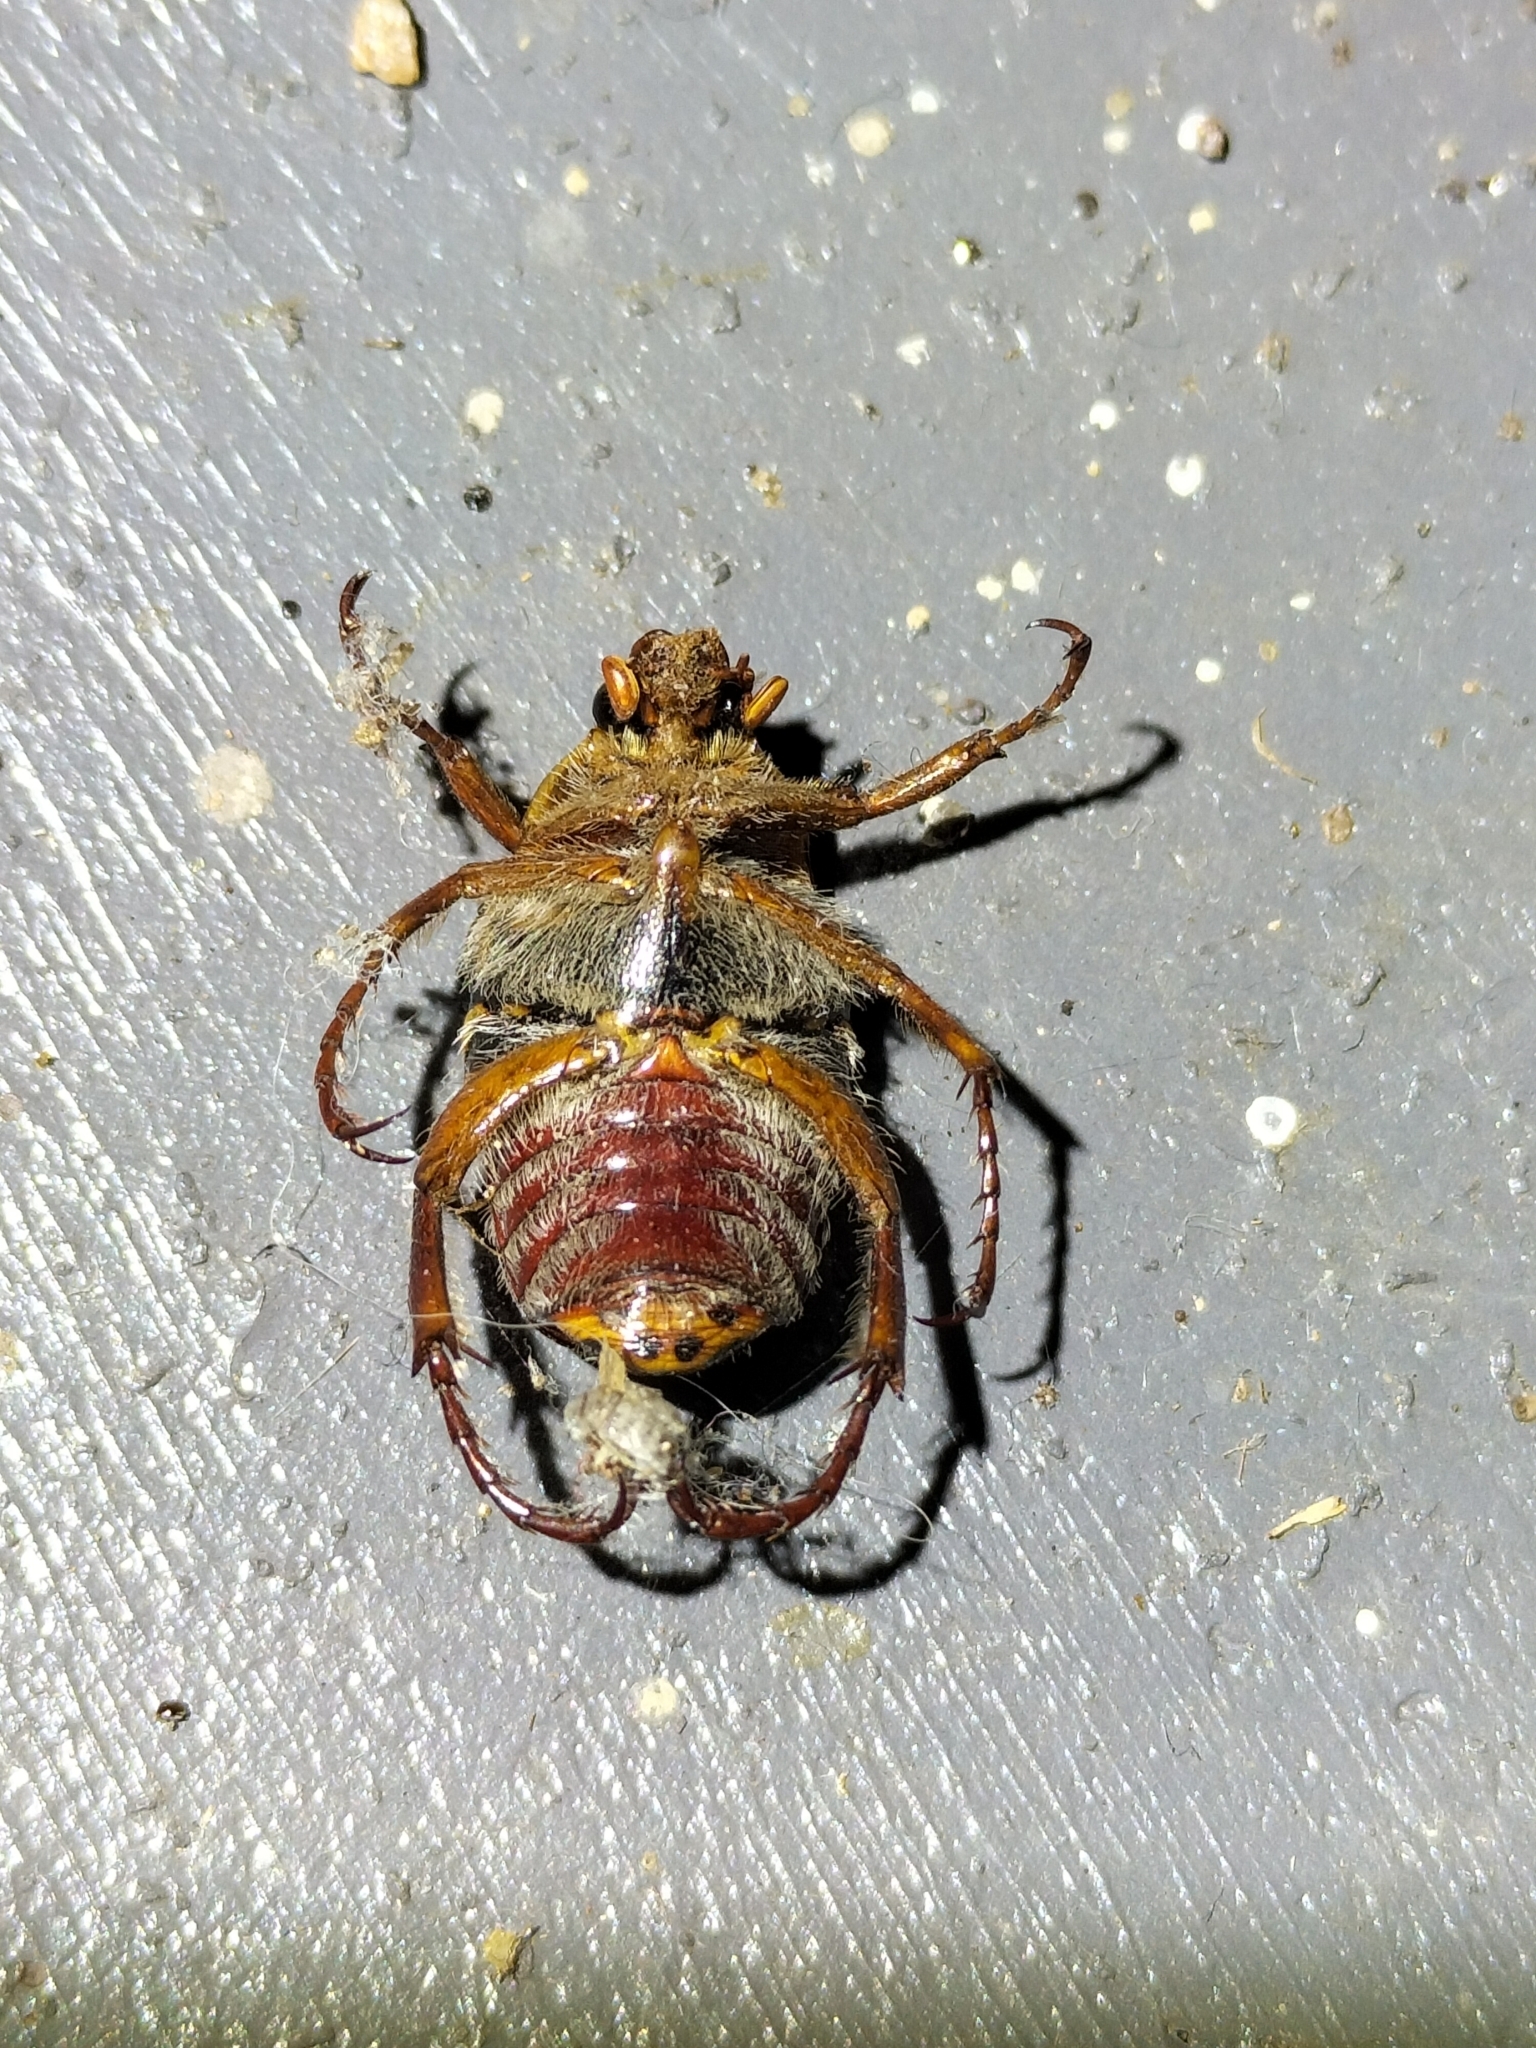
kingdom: Animalia
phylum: Arthropoda
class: Insecta
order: Coleoptera
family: Scarabaeidae
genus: Neorrhina
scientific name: Neorrhina punctatum
